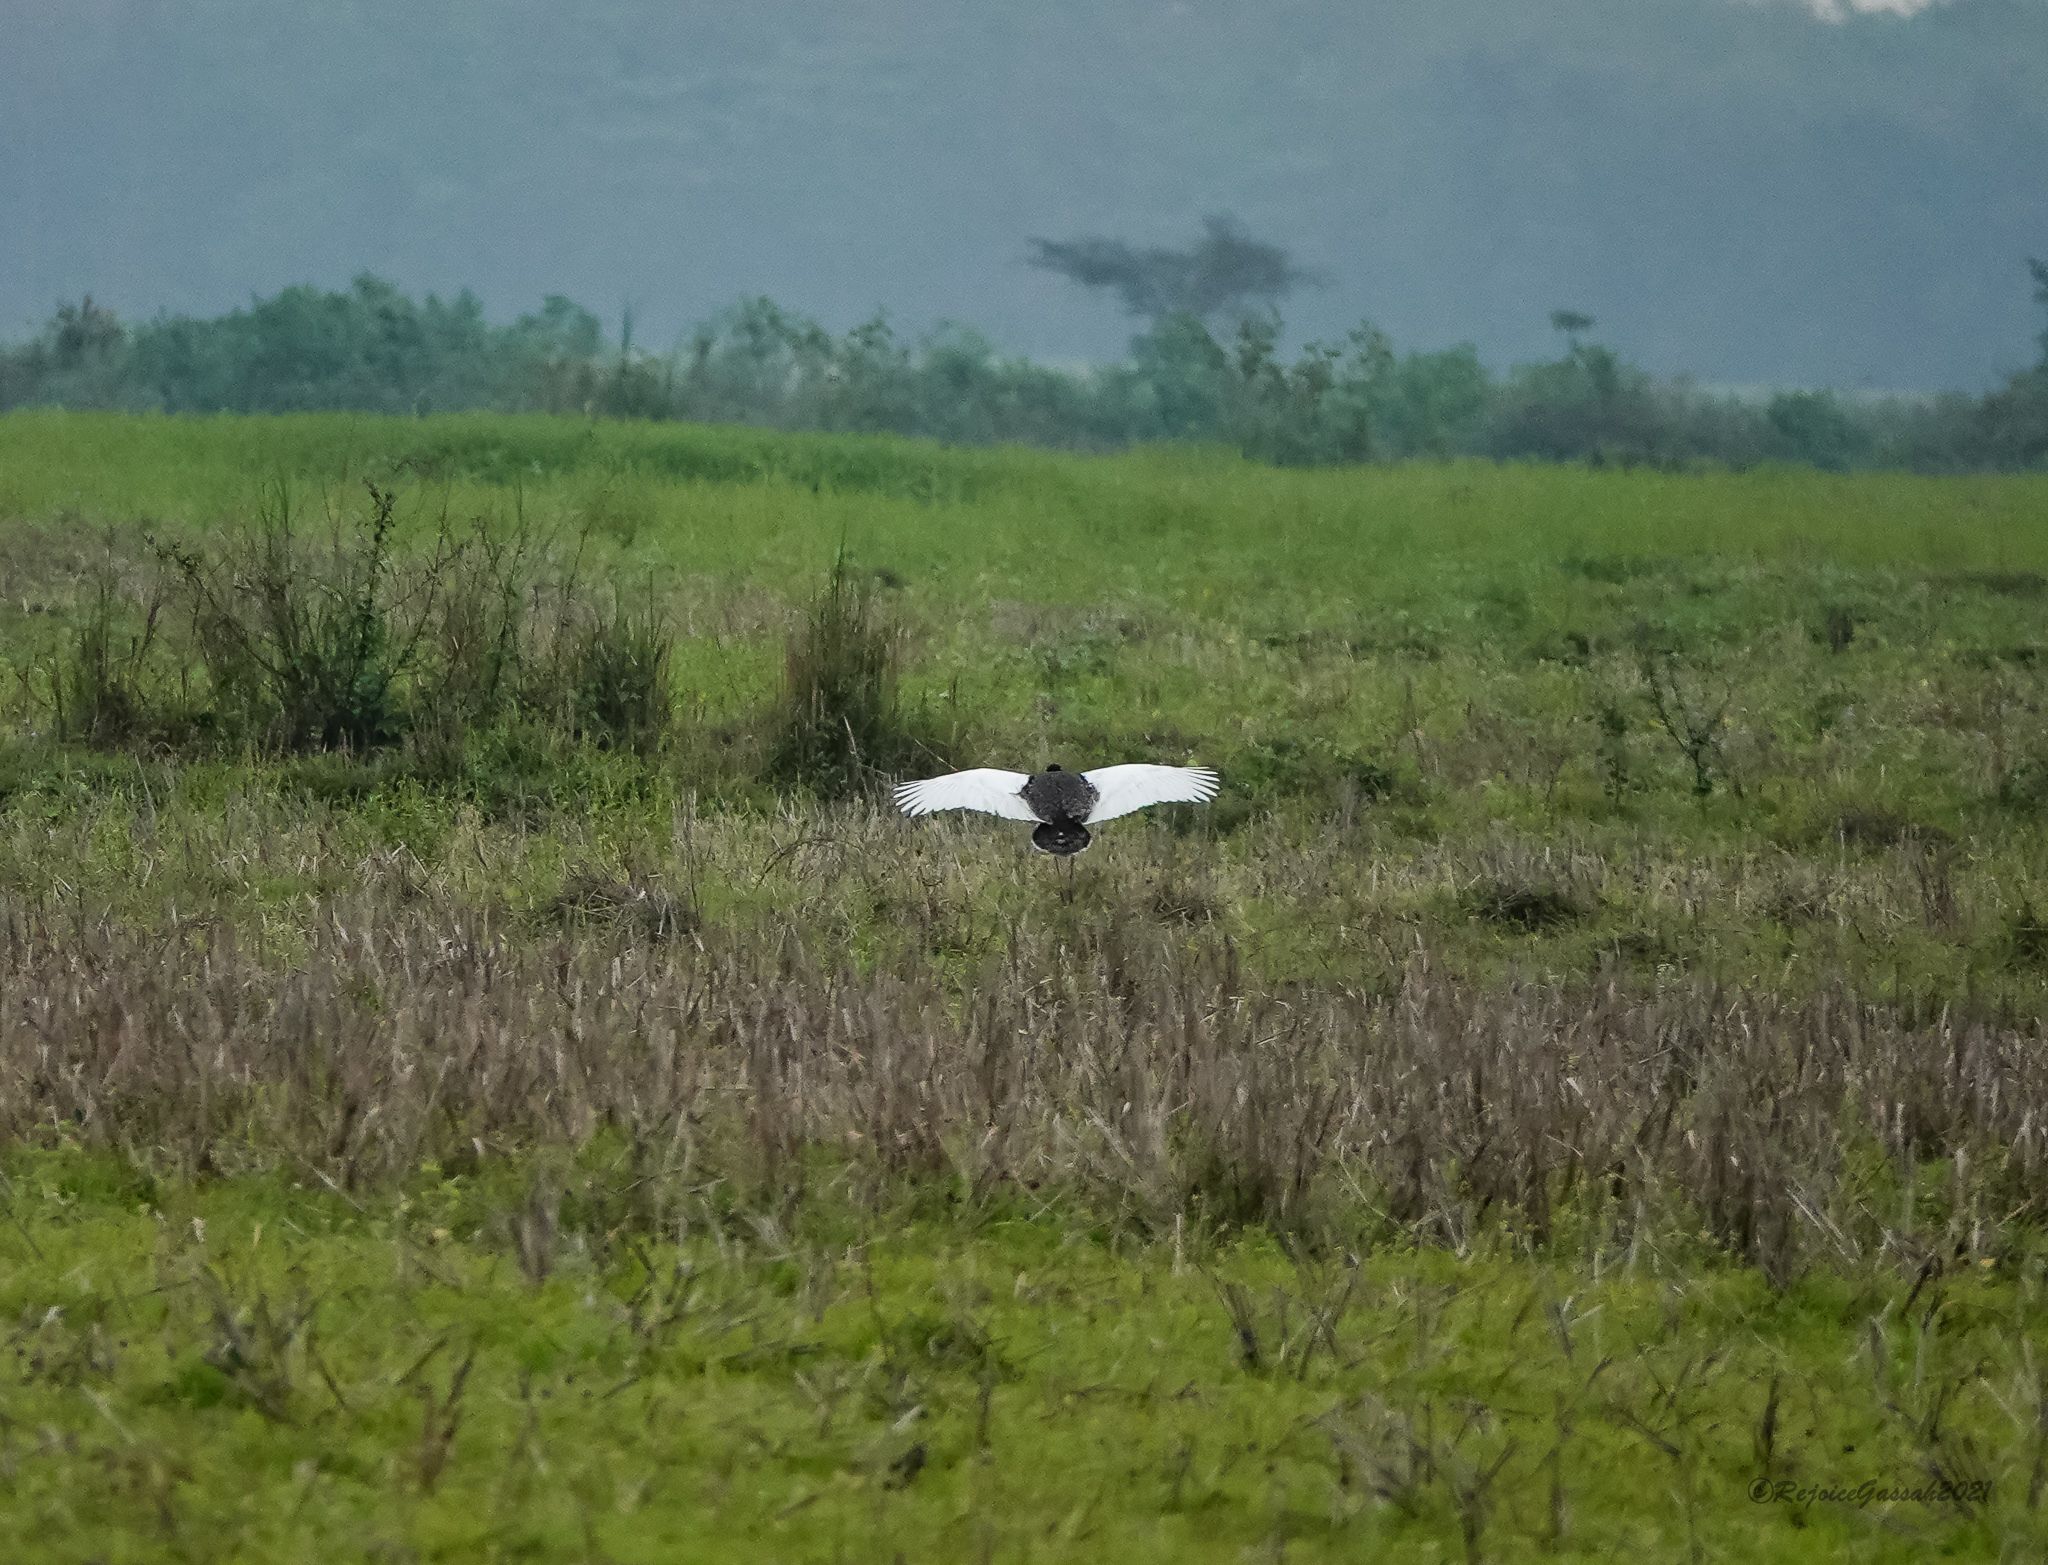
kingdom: Animalia
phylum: Chordata
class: Aves
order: Otidiformes
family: Otididae
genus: Houbaropsis
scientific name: Houbaropsis bengalensis
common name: Bengal florican
